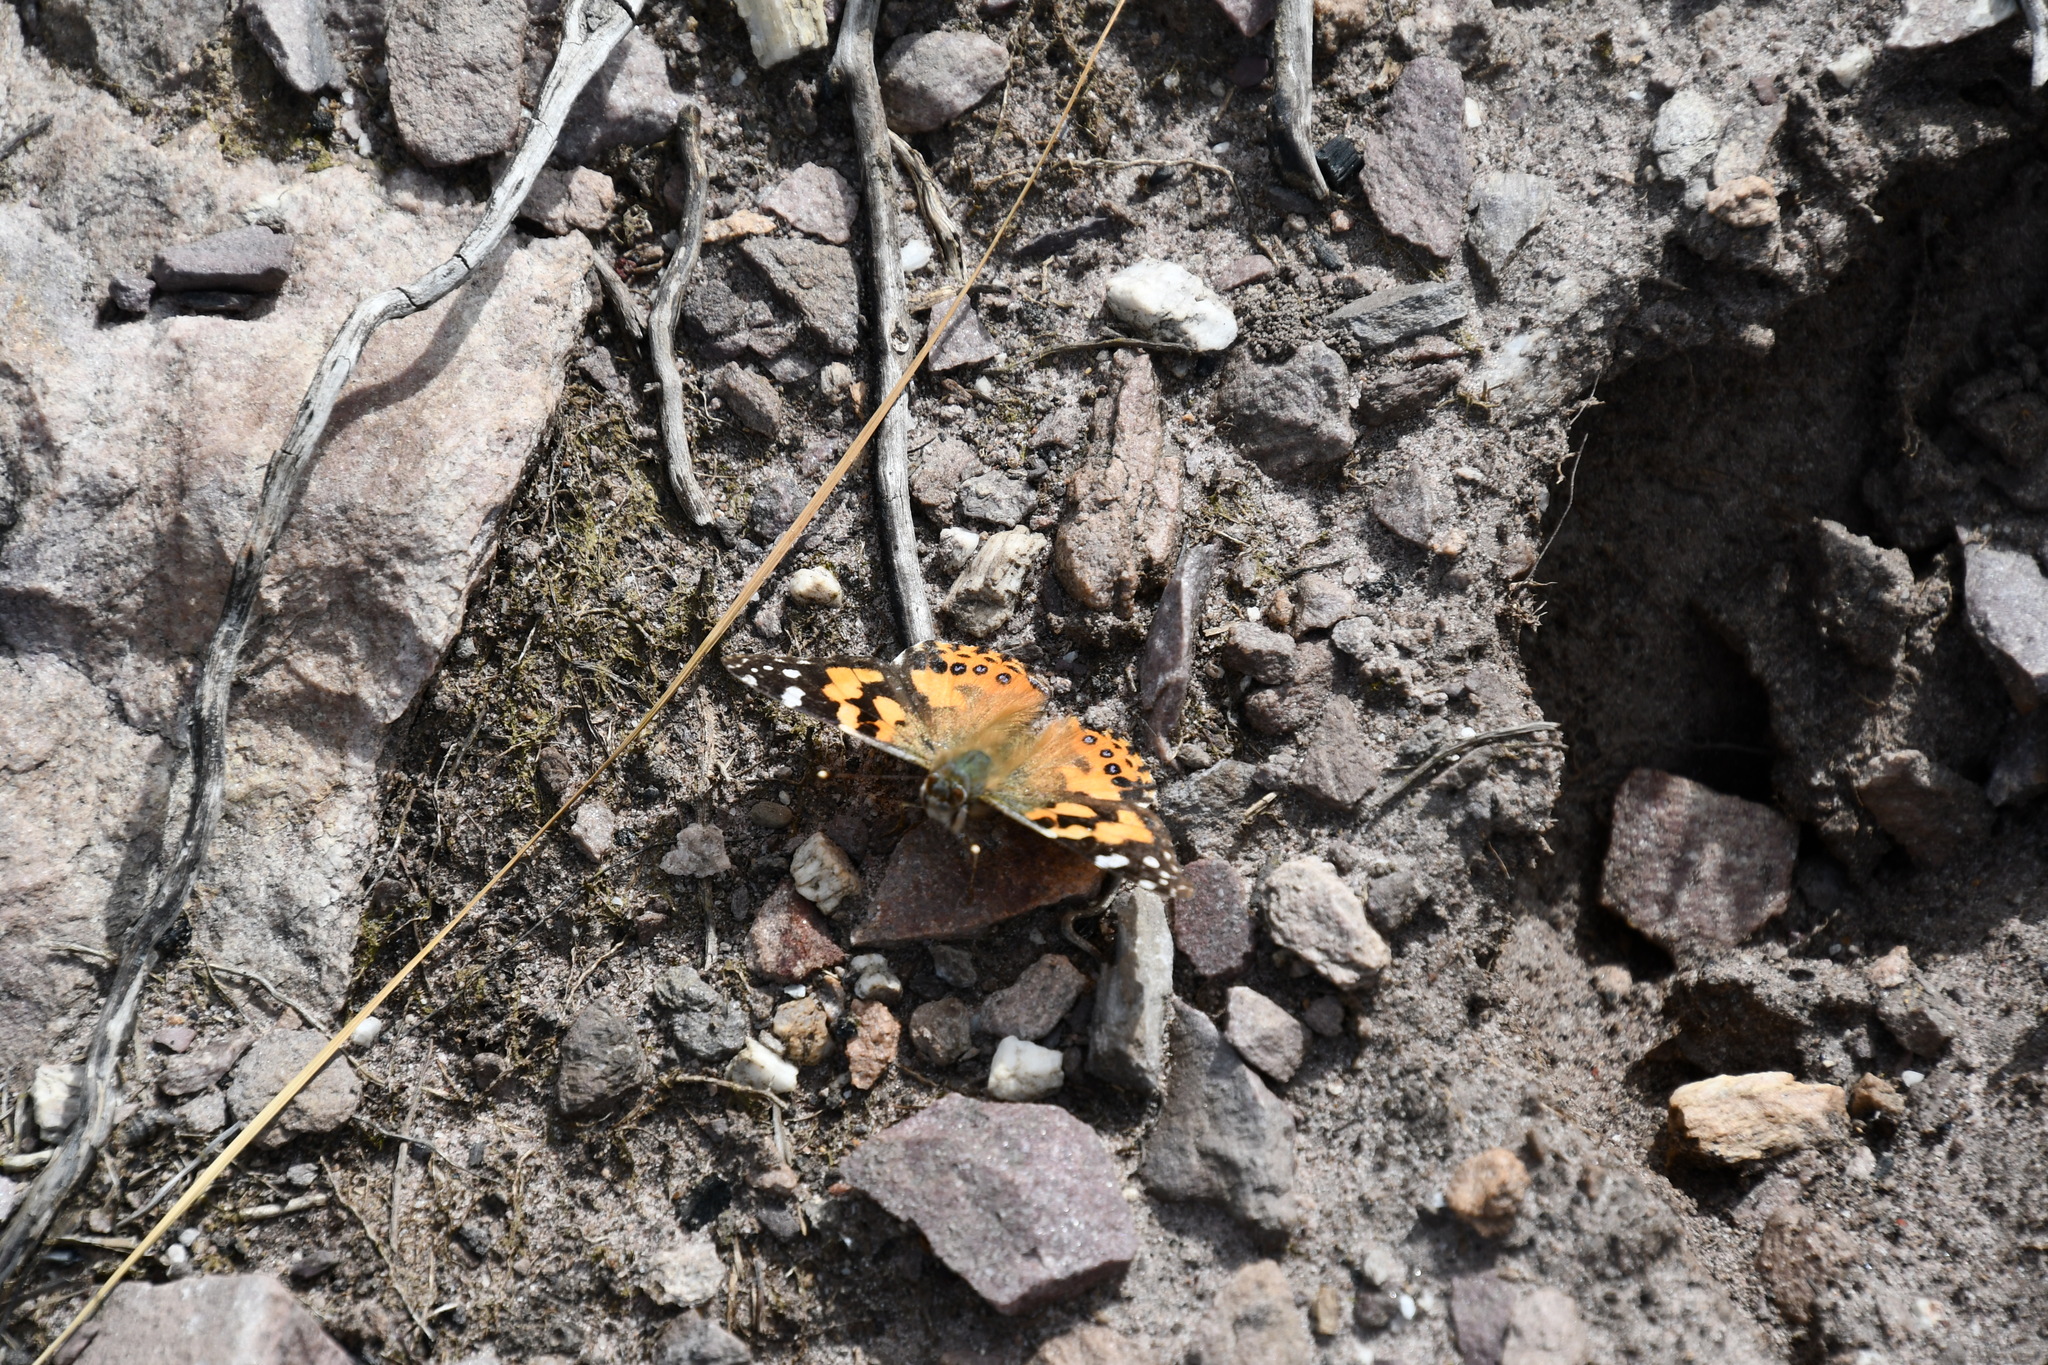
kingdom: Animalia
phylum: Arthropoda
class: Insecta
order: Lepidoptera
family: Nymphalidae
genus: Vanessa
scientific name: Vanessa kershawi
